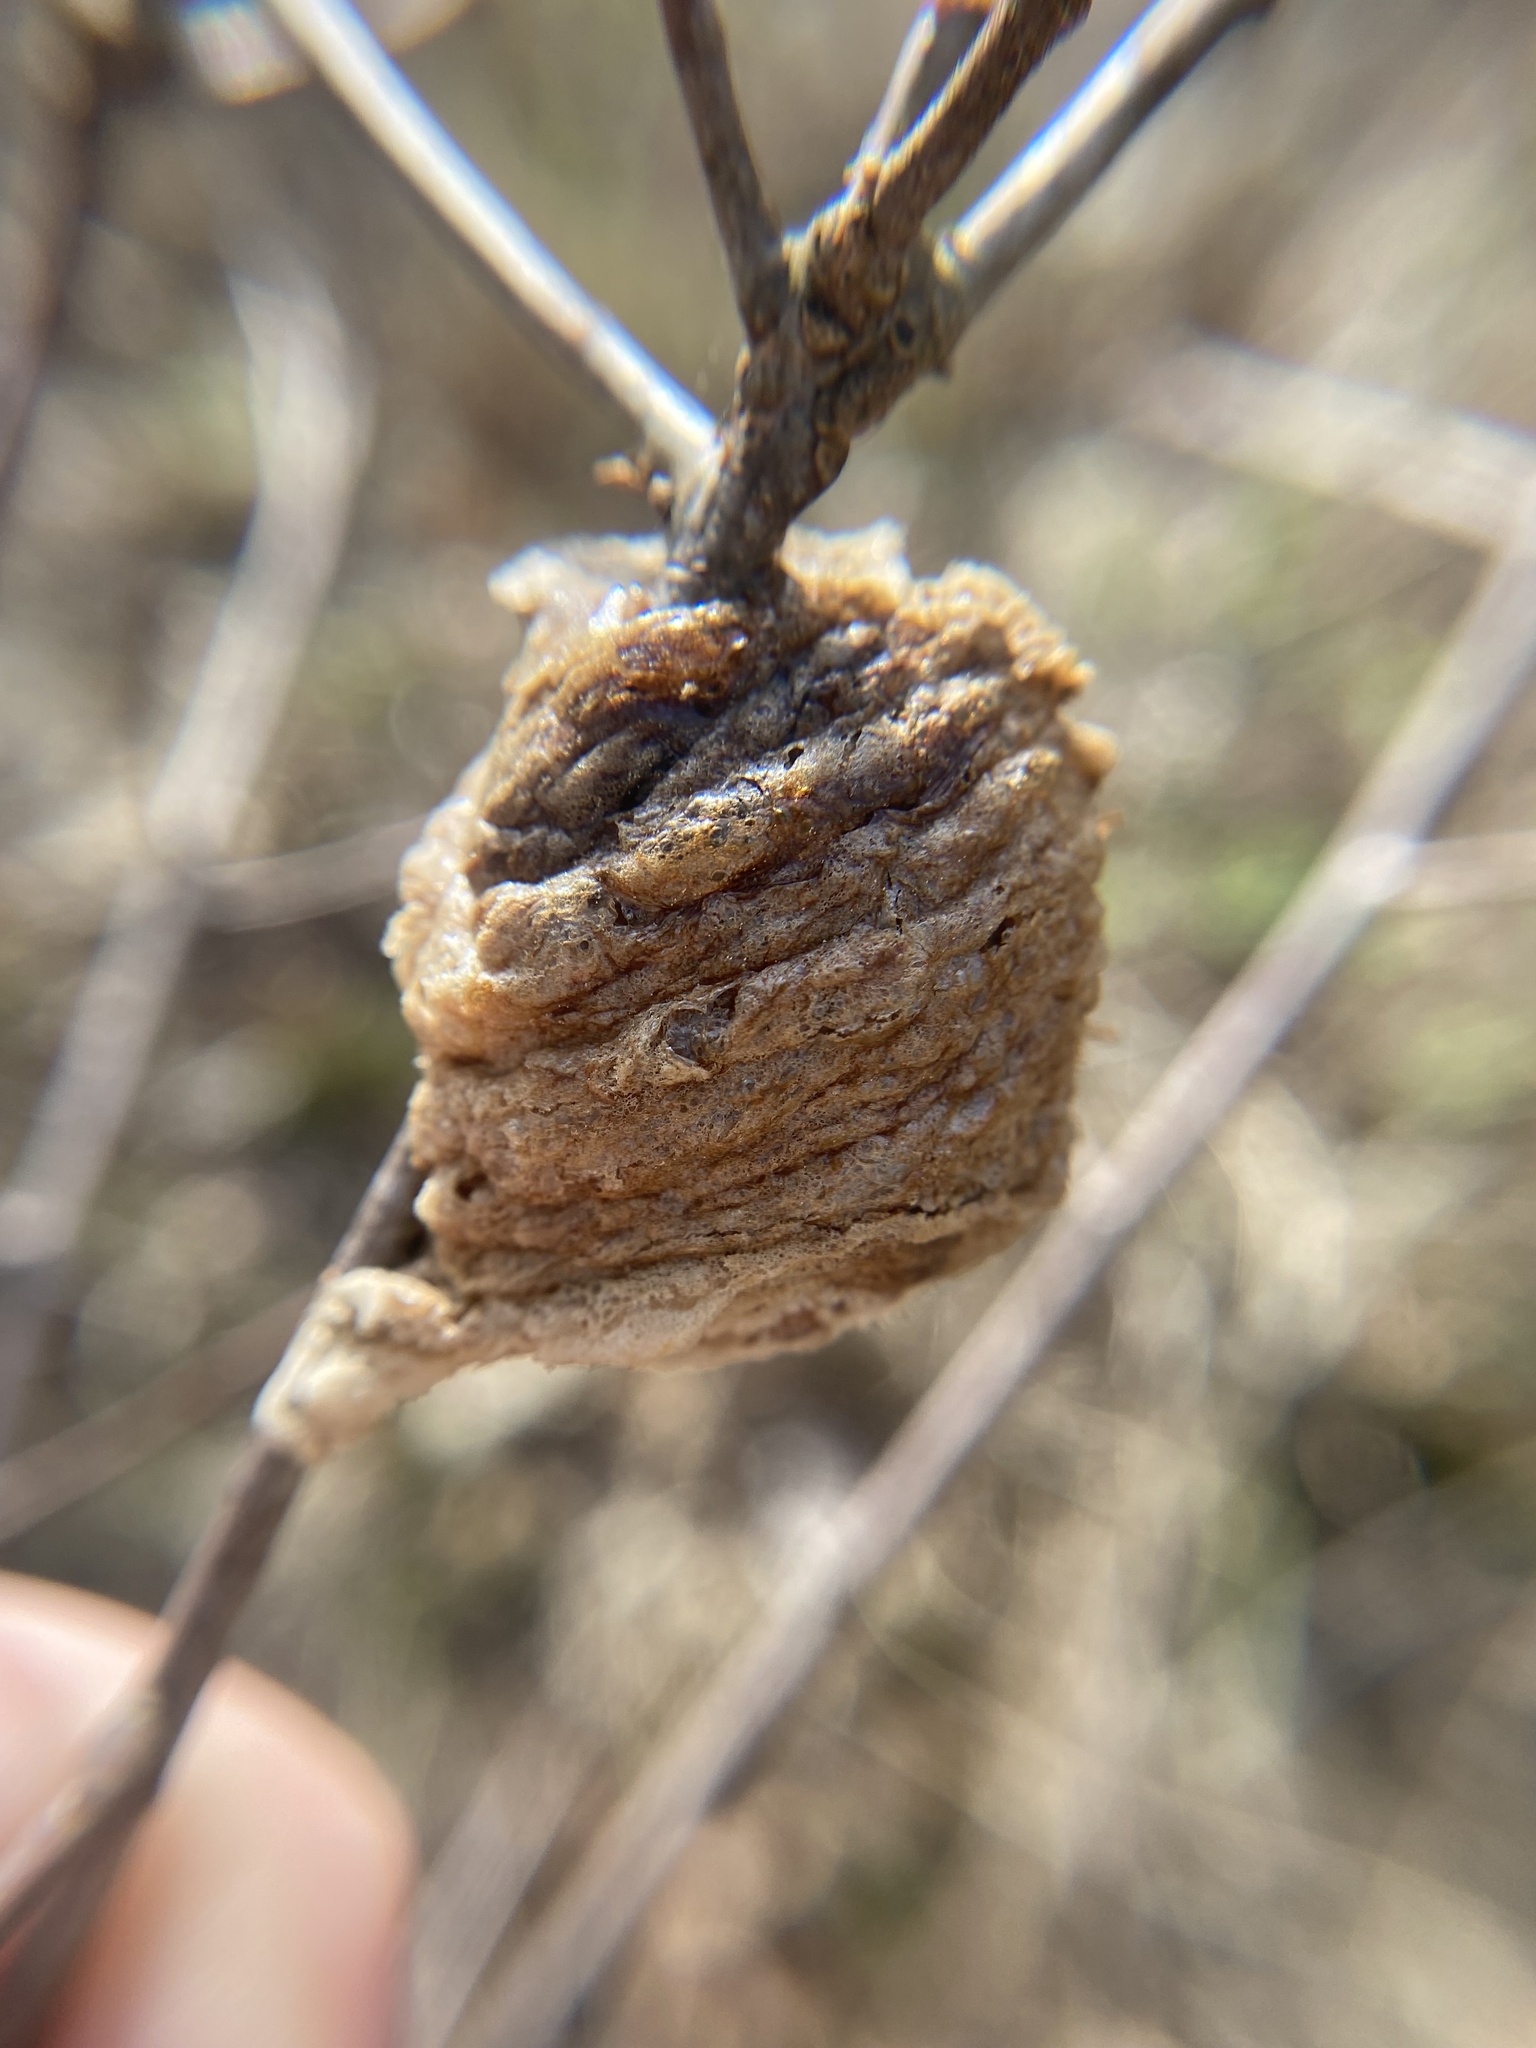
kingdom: Animalia
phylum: Arthropoda
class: Insecta
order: Mantodea
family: Mantidae
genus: Tenodera
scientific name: Tenodera sinensis
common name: Chinese mantis
